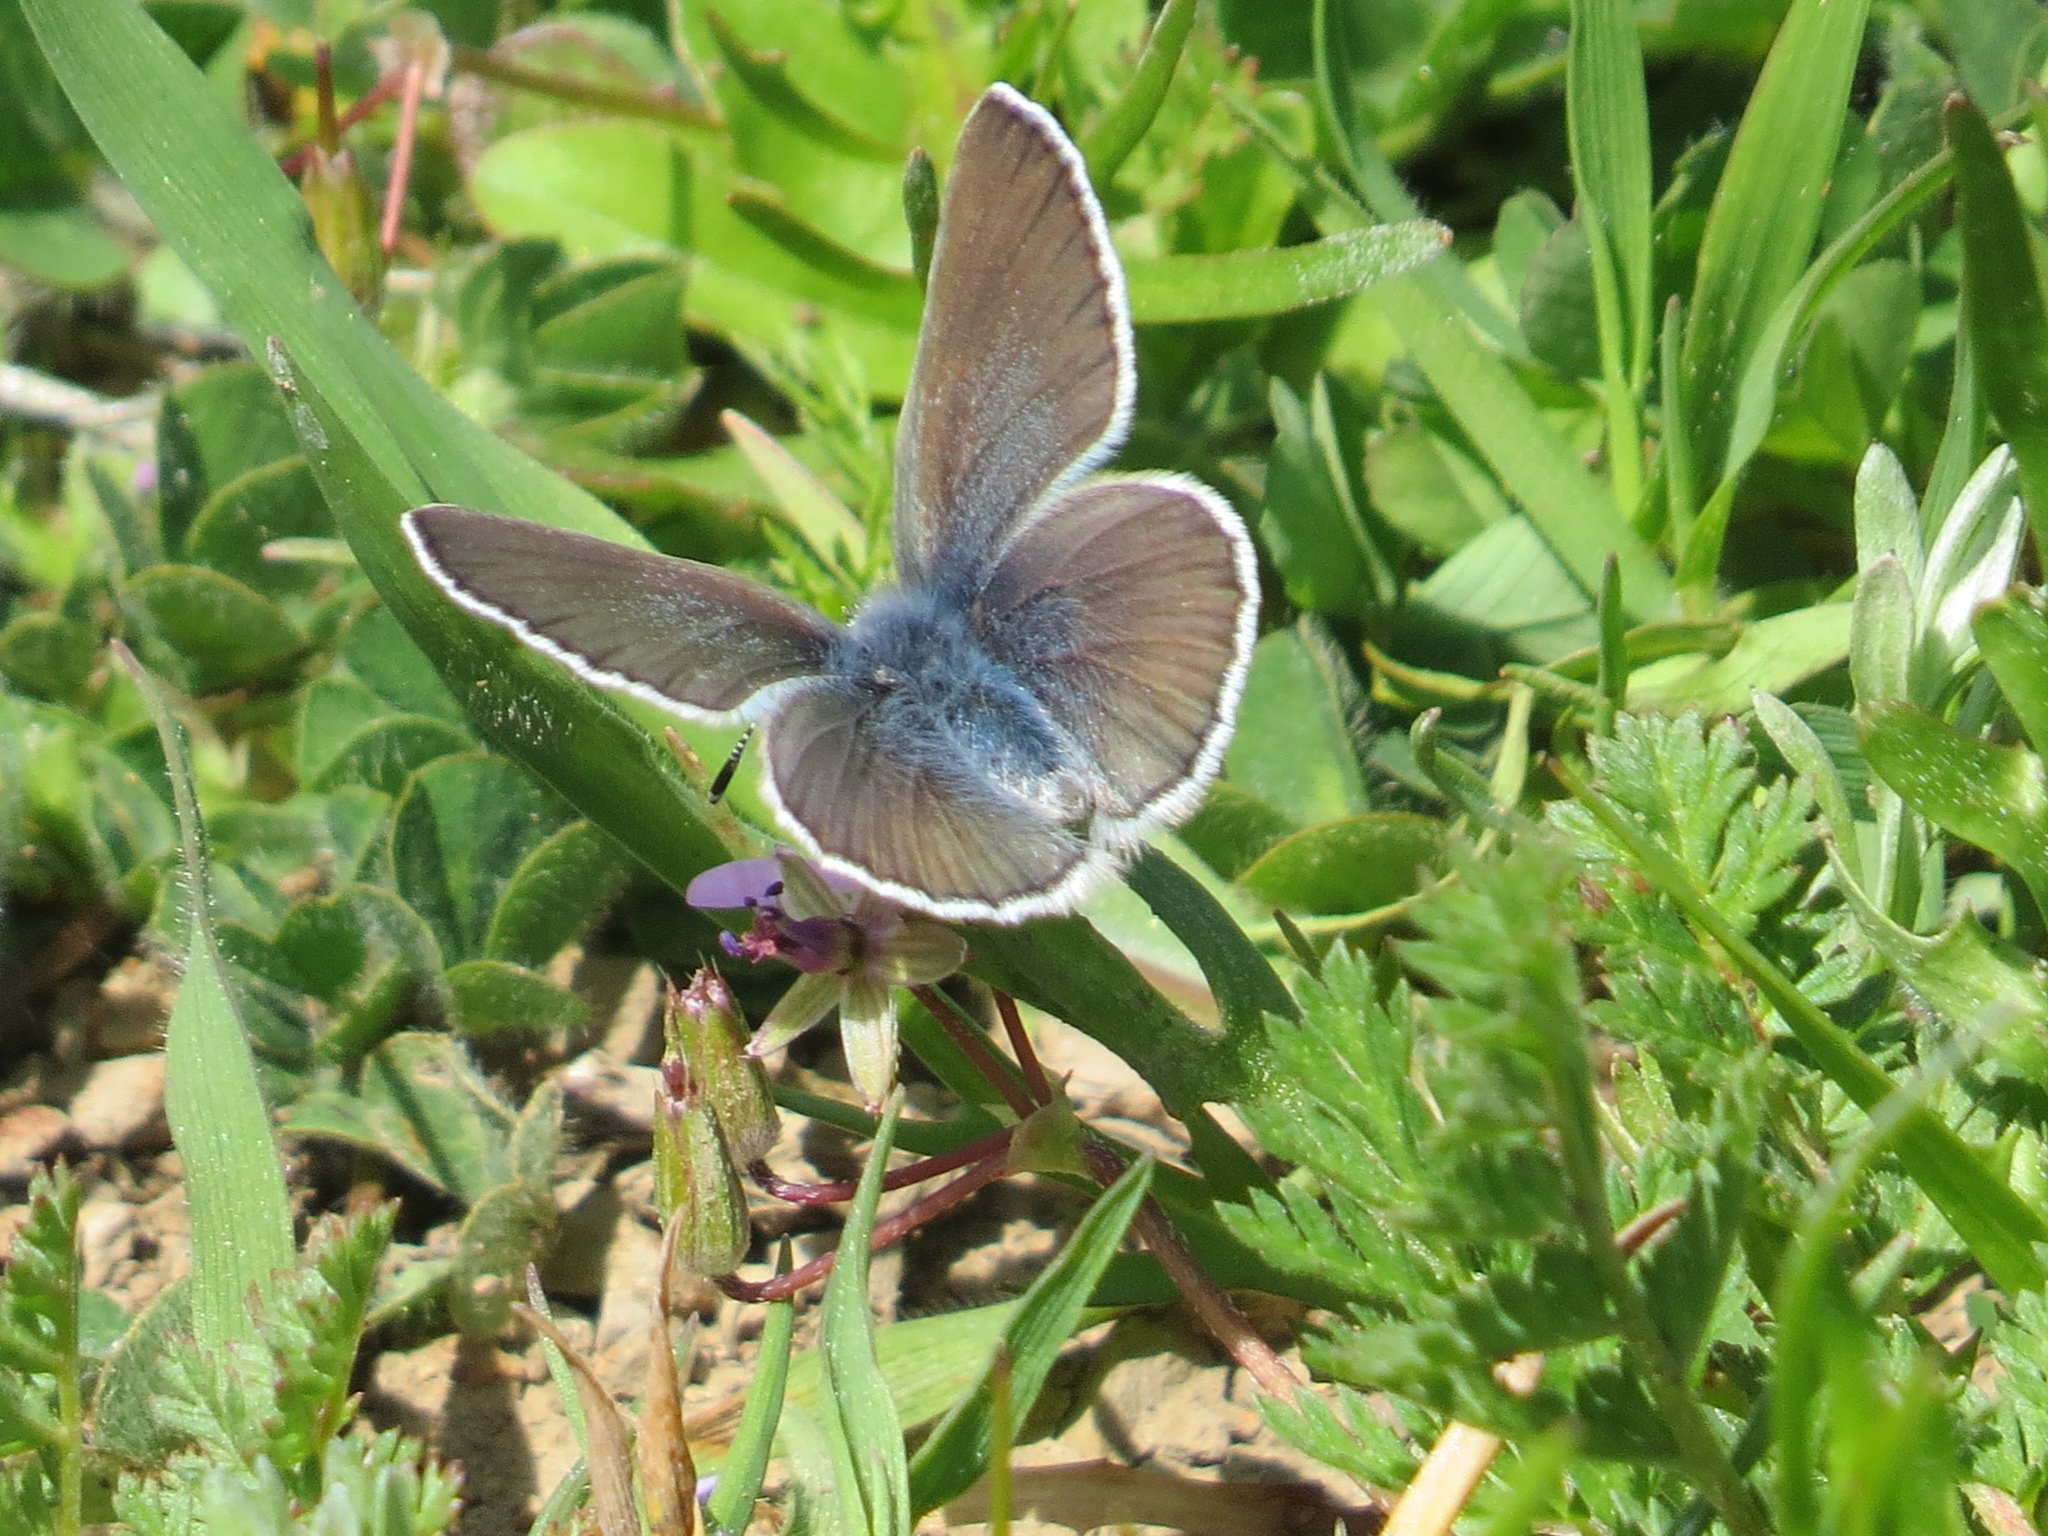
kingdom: Animalia
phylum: Arthropoda
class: Insecta
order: Lepidoptera
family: Lycaenidae
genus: Glaucopsyche
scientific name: Glaucopsyche lygdamus
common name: Silvery blue
